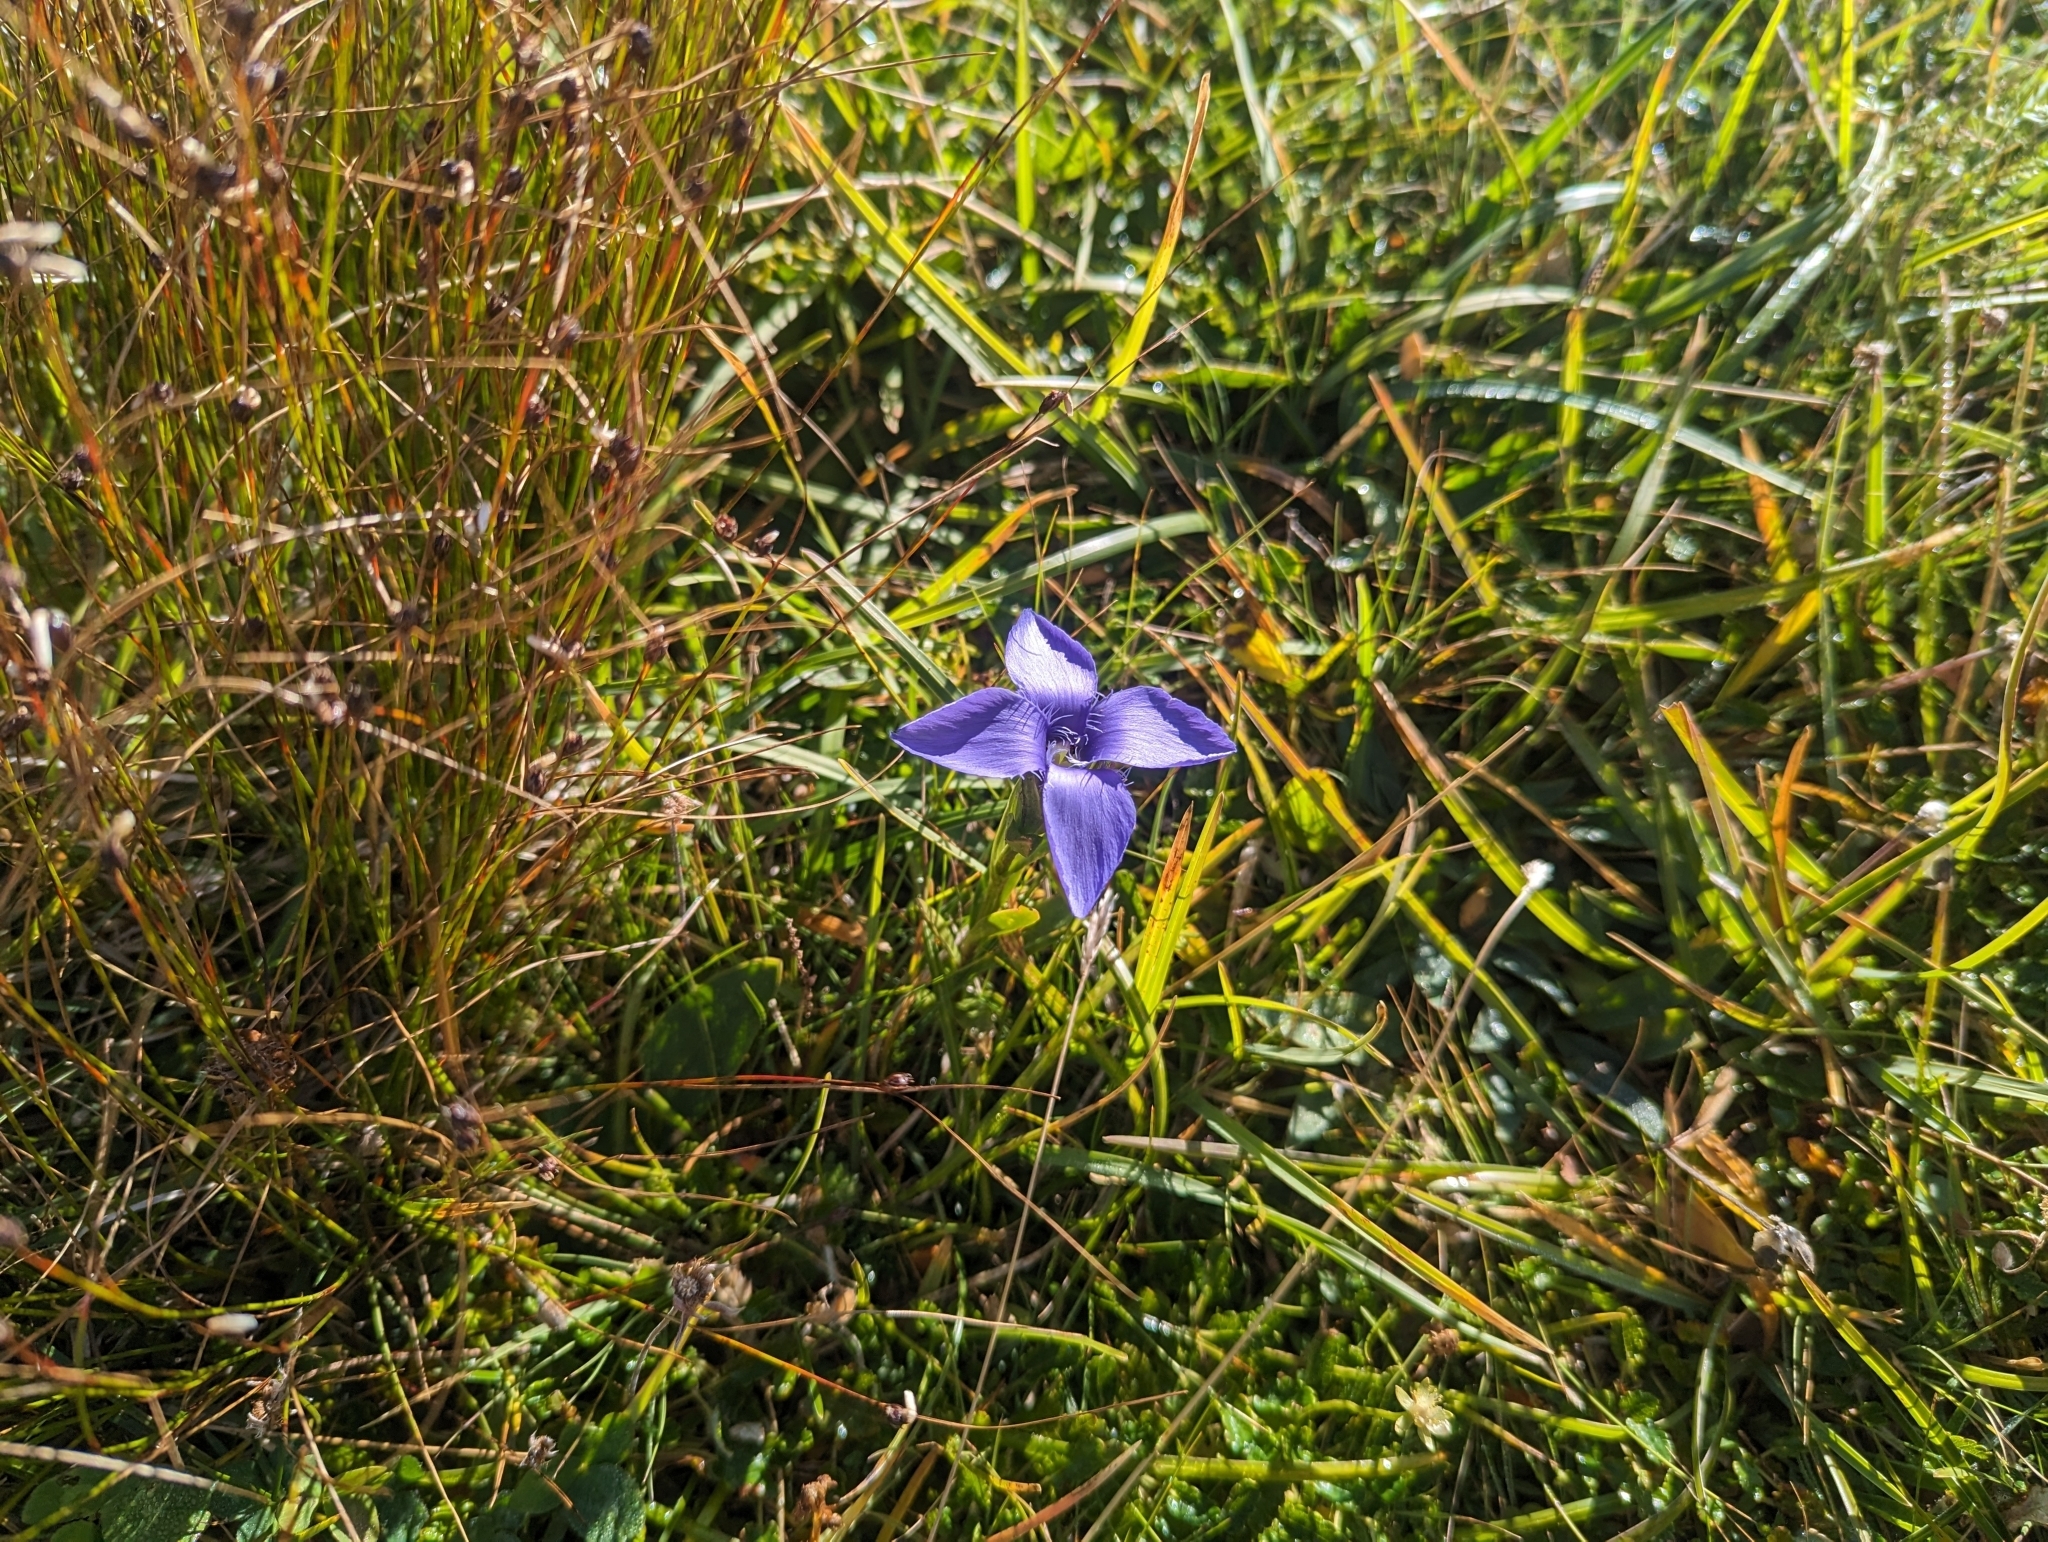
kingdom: Plantae
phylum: Tracheophyta
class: Magnoliopsida
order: Gentianales
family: Gentianaceae
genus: Gentianopsis
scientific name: Gentianopsis ciliata
